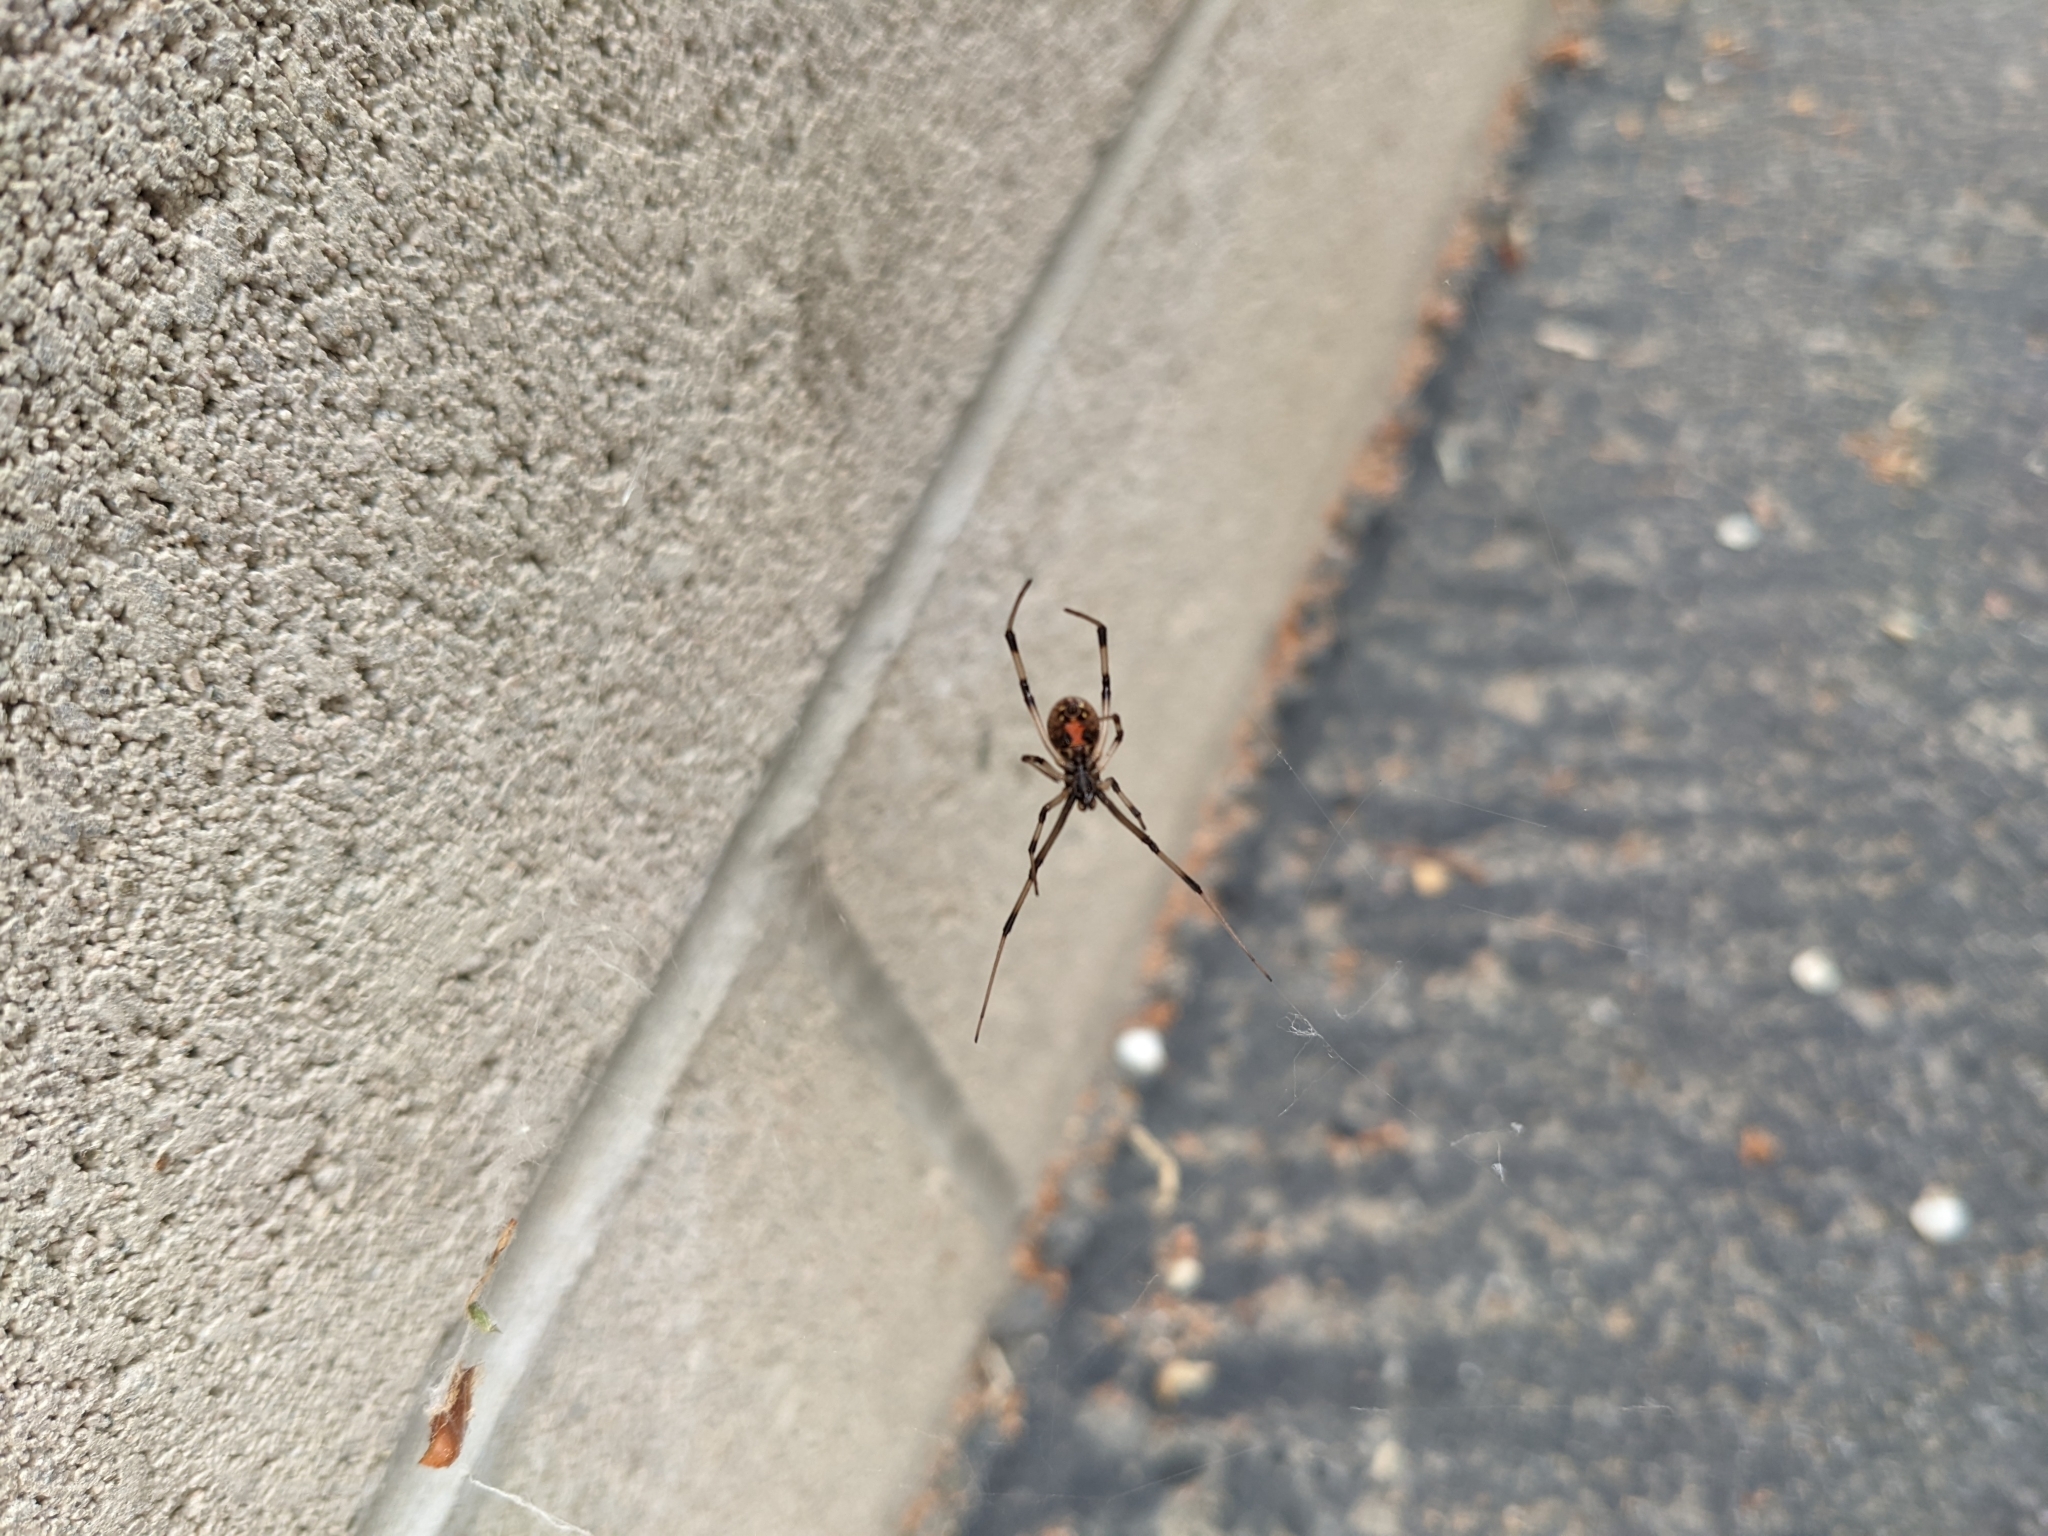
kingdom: Animalia
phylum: Arthropoda
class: Arachnida
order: Araneae
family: Theridiidae
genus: Latrodectus
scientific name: Latrodectus geometricus
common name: Brown widow spider
